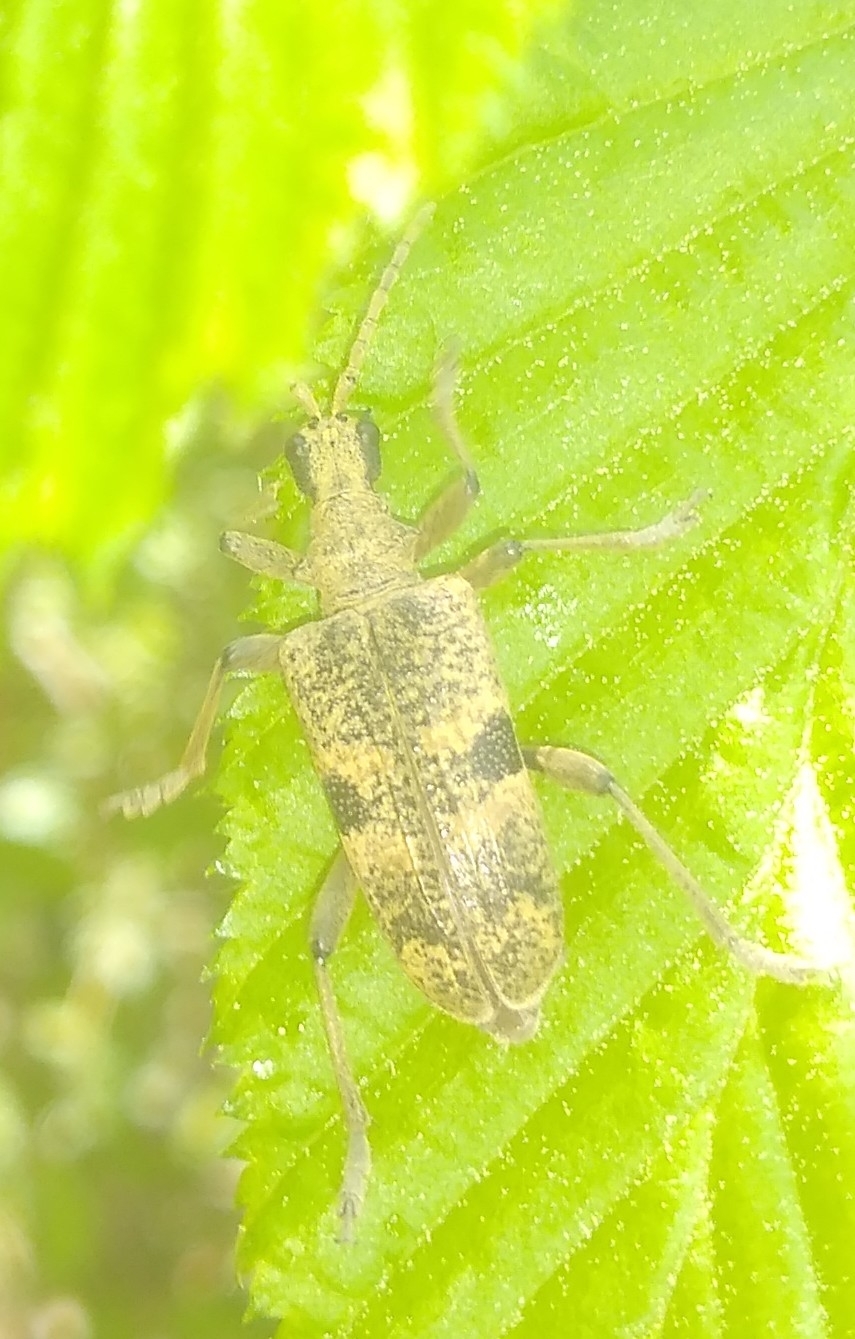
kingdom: Animalia
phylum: Arthropoda
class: Insecta
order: Coleoptera
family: Cerambycidae
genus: Rhagium
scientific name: Rhagium mordax
